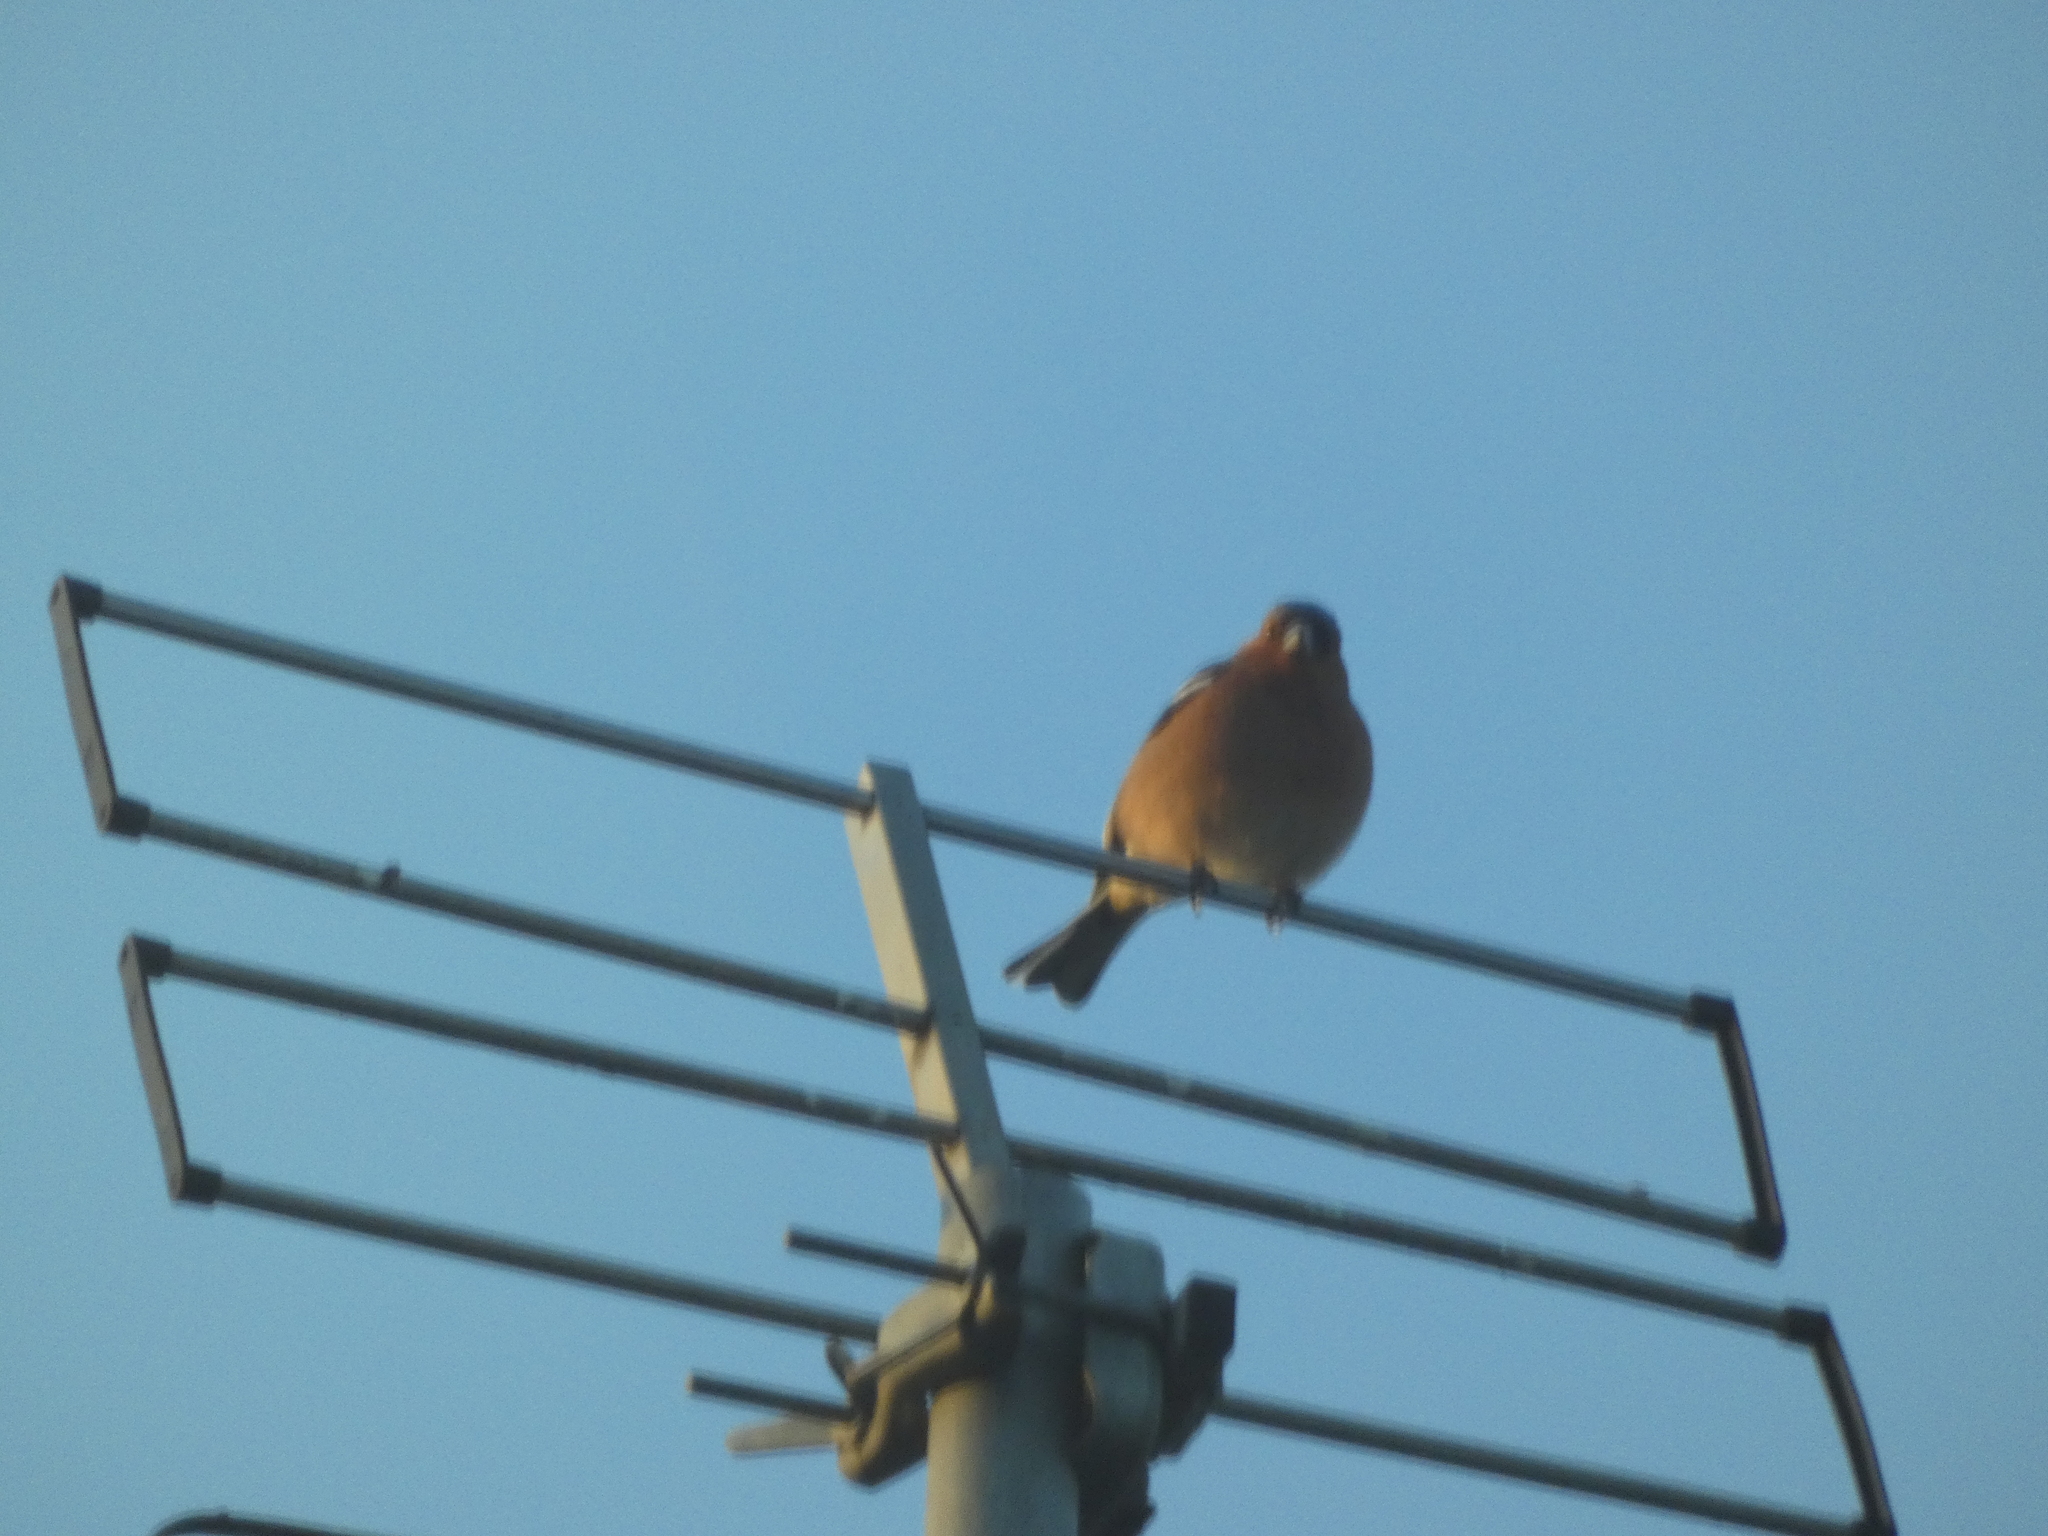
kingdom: Animalia
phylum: Chordata
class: Aves
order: Passeriformes
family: Fringillidae
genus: Fringilla
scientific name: Fringilla coelebs
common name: Common chaffinch
